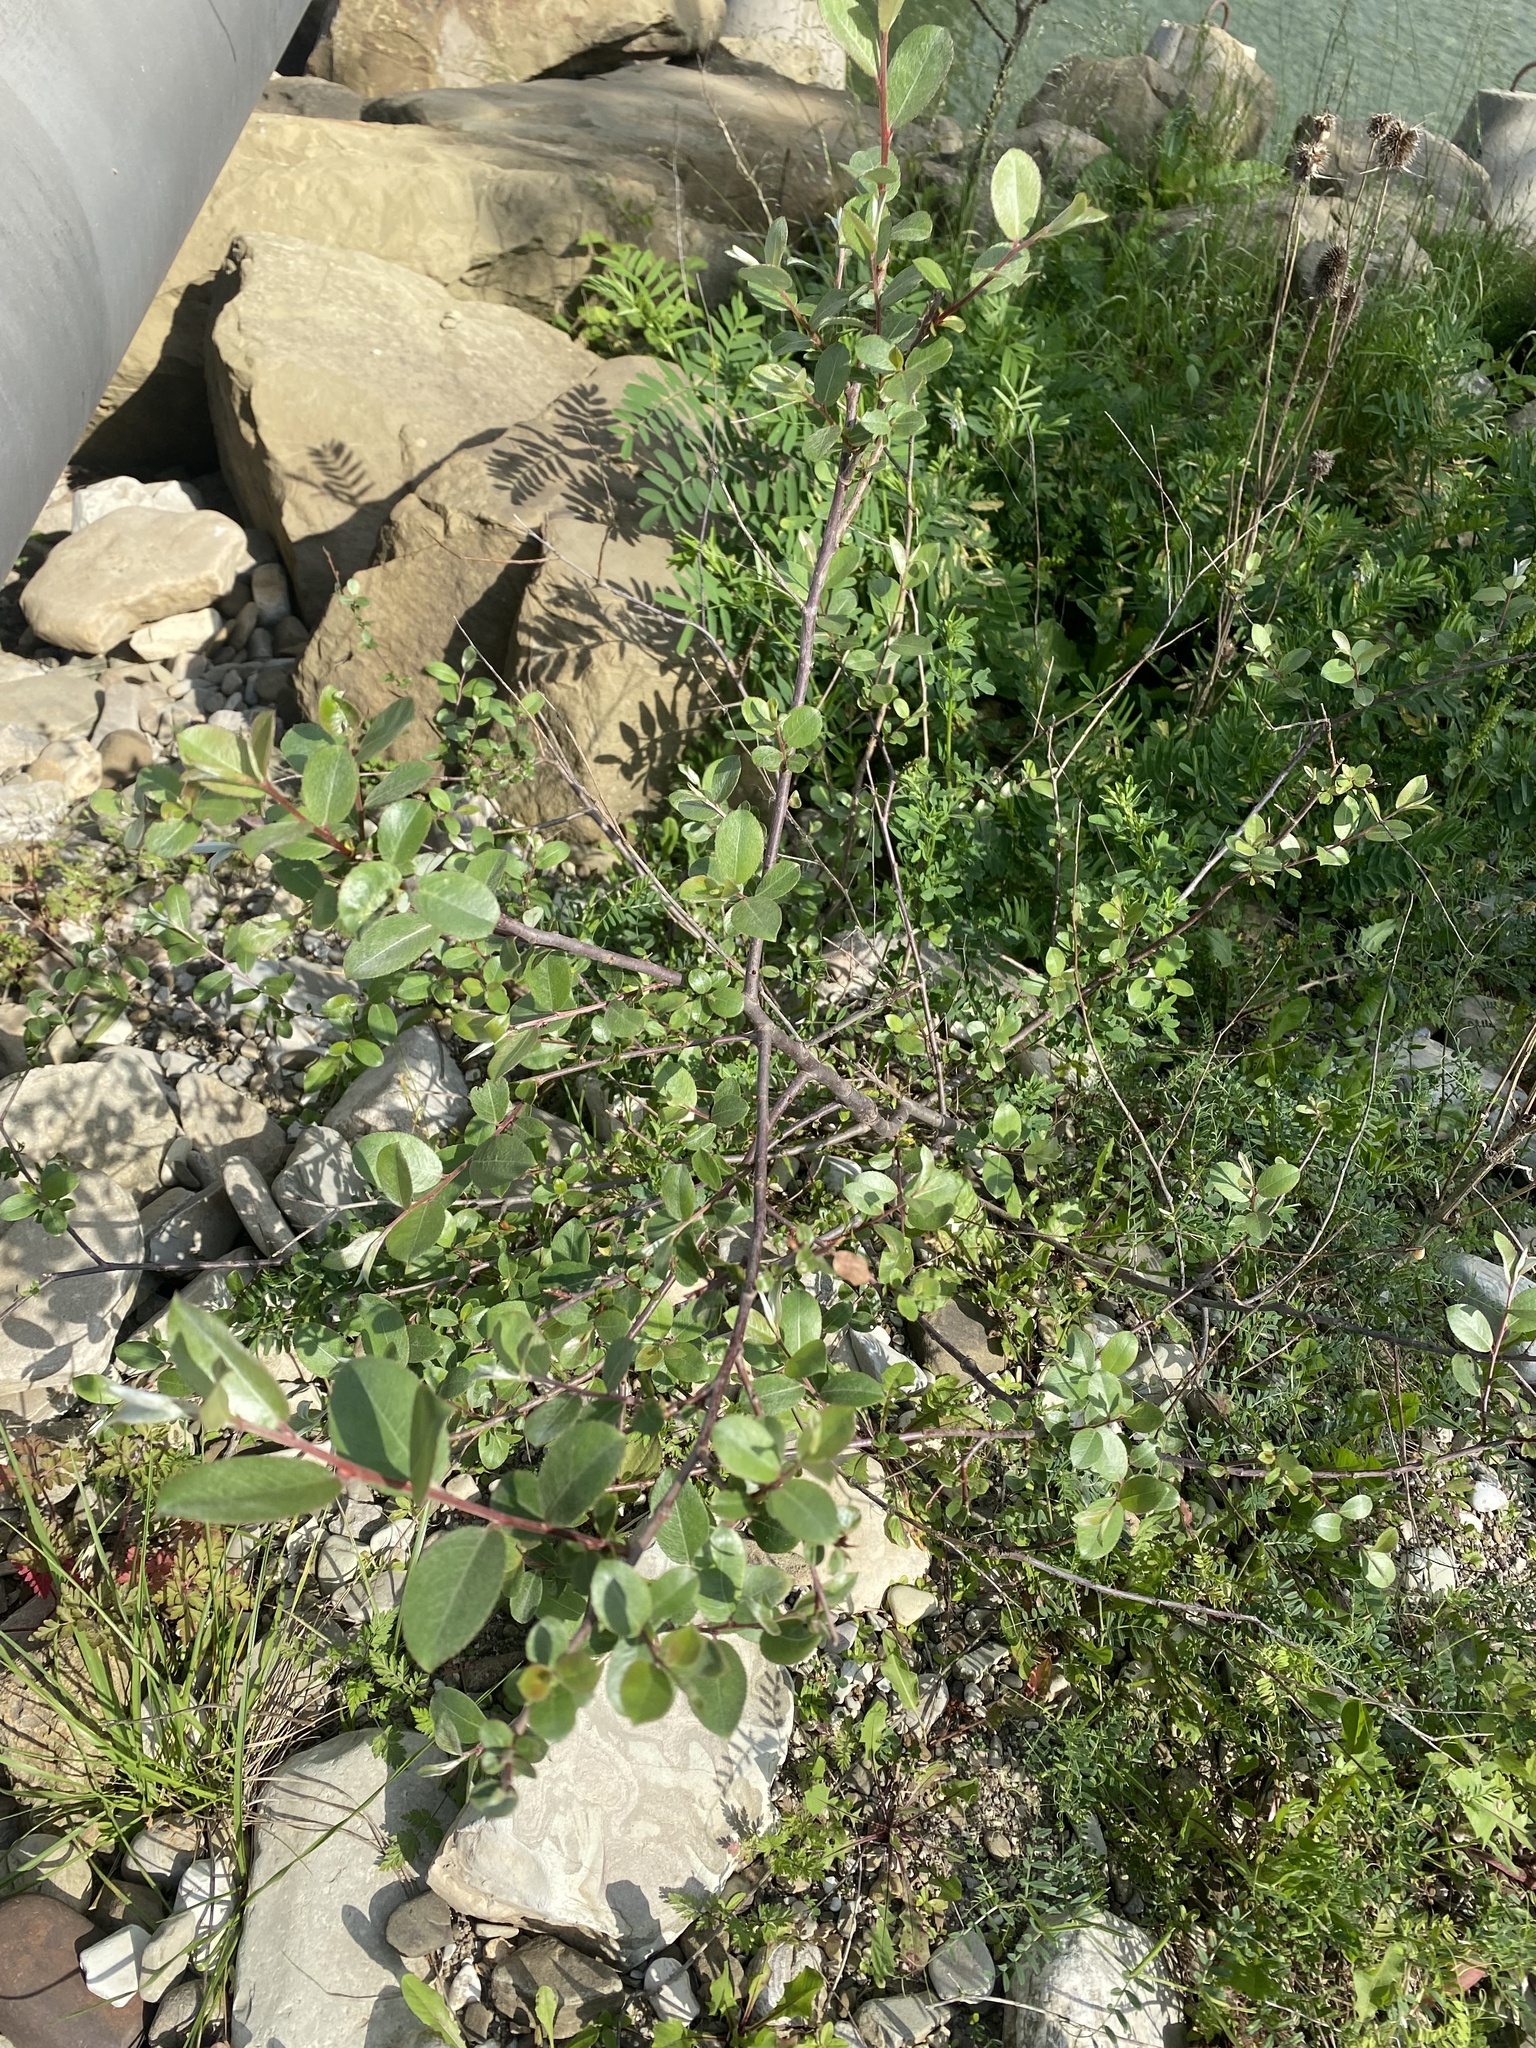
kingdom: Plantae
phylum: Tracheophyta
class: Magnoliopsida
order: Malpighiales
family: Salicaceae
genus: Salix
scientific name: Salix alba
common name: White willow
